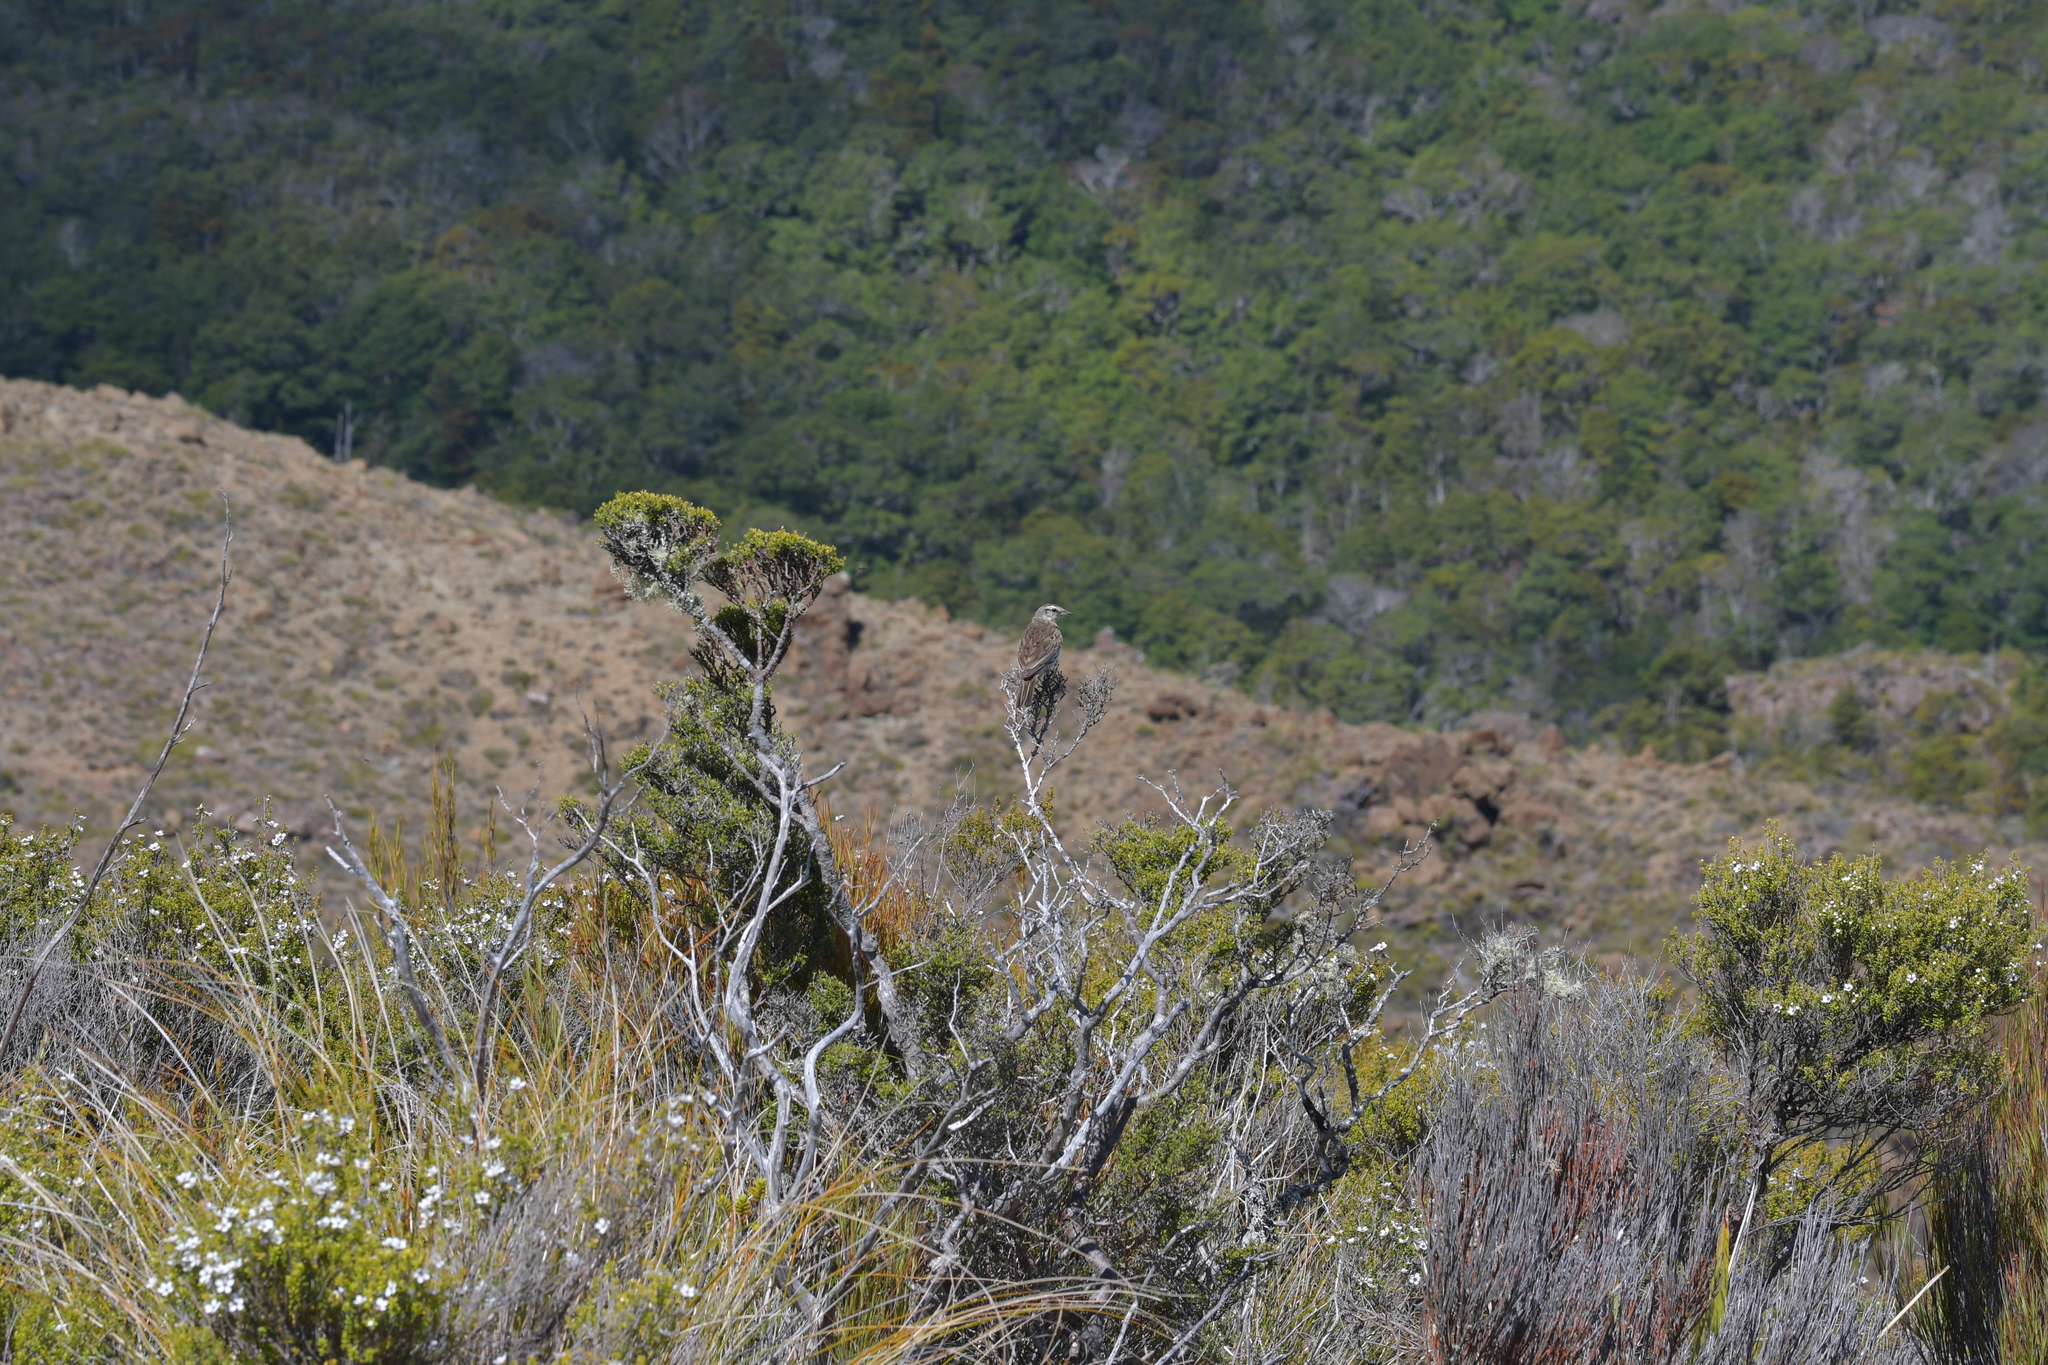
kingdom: Animalia
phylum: Chordata
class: Aves
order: Passeriformes
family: Motacillidae
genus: Anthus
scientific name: Anthus novaeseelandiae
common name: New zealand pipit
